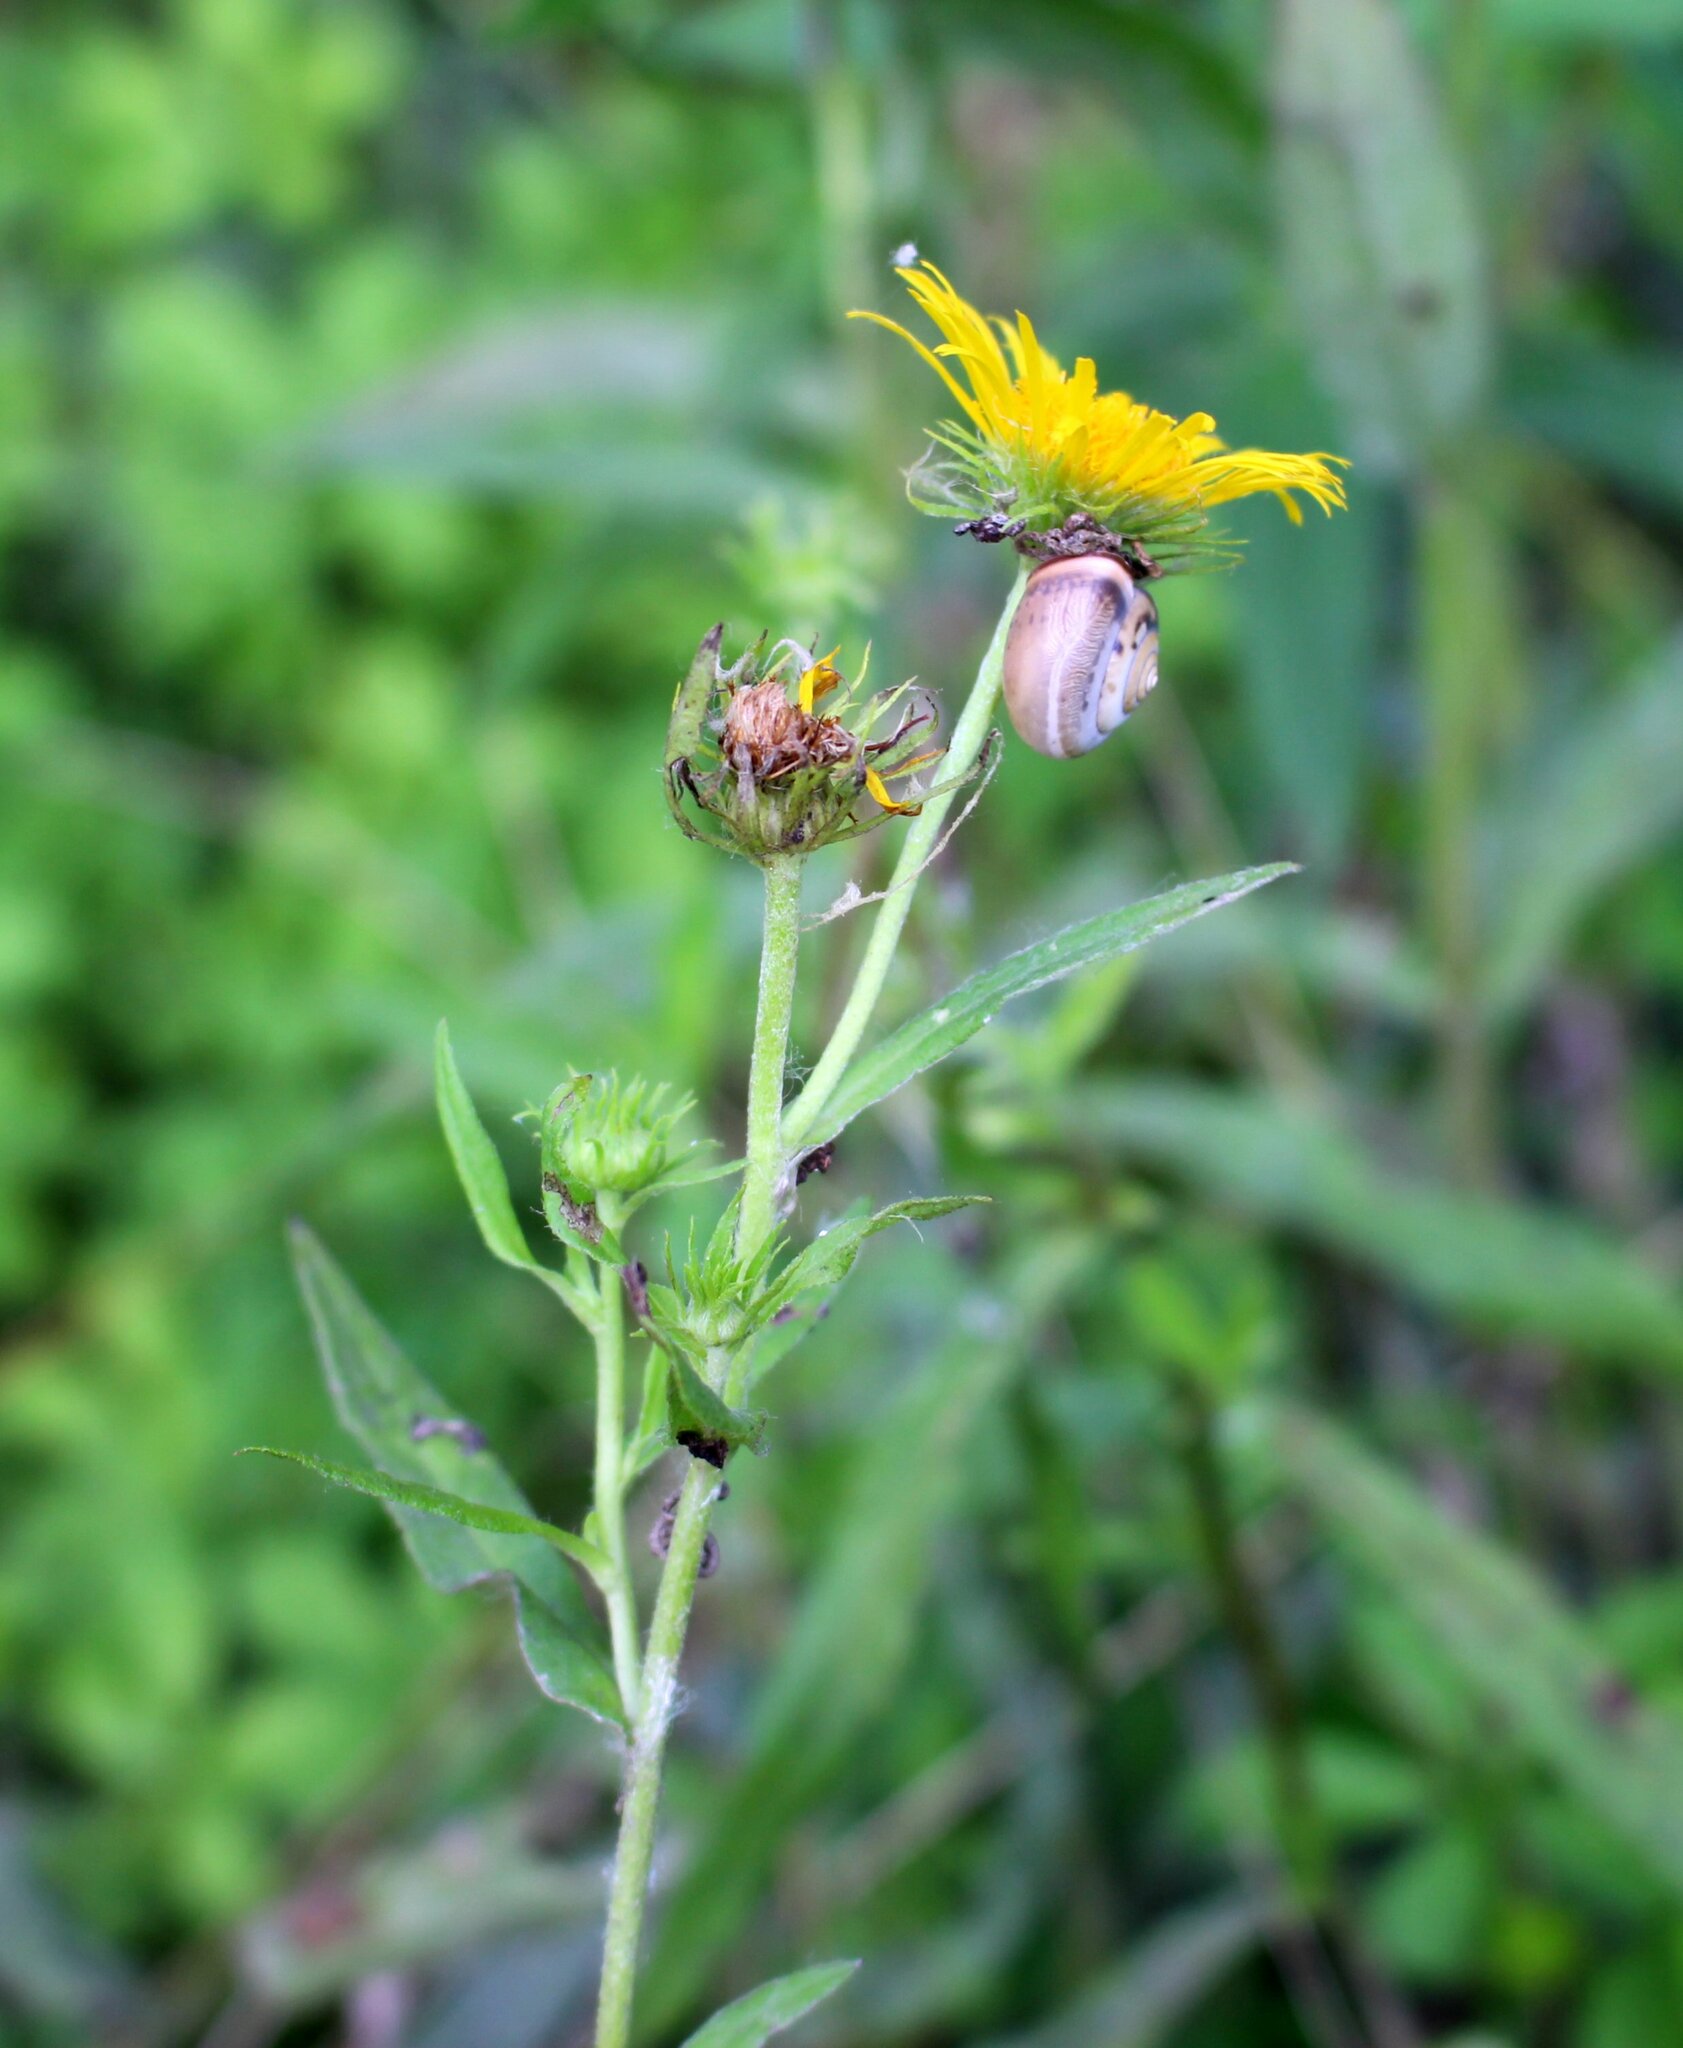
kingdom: Plantae
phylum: Tracheophyta
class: Magnoliopsida
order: Asterales
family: Asteraceae
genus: Pentanema
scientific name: Pentanema britannicum
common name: British elecampane
